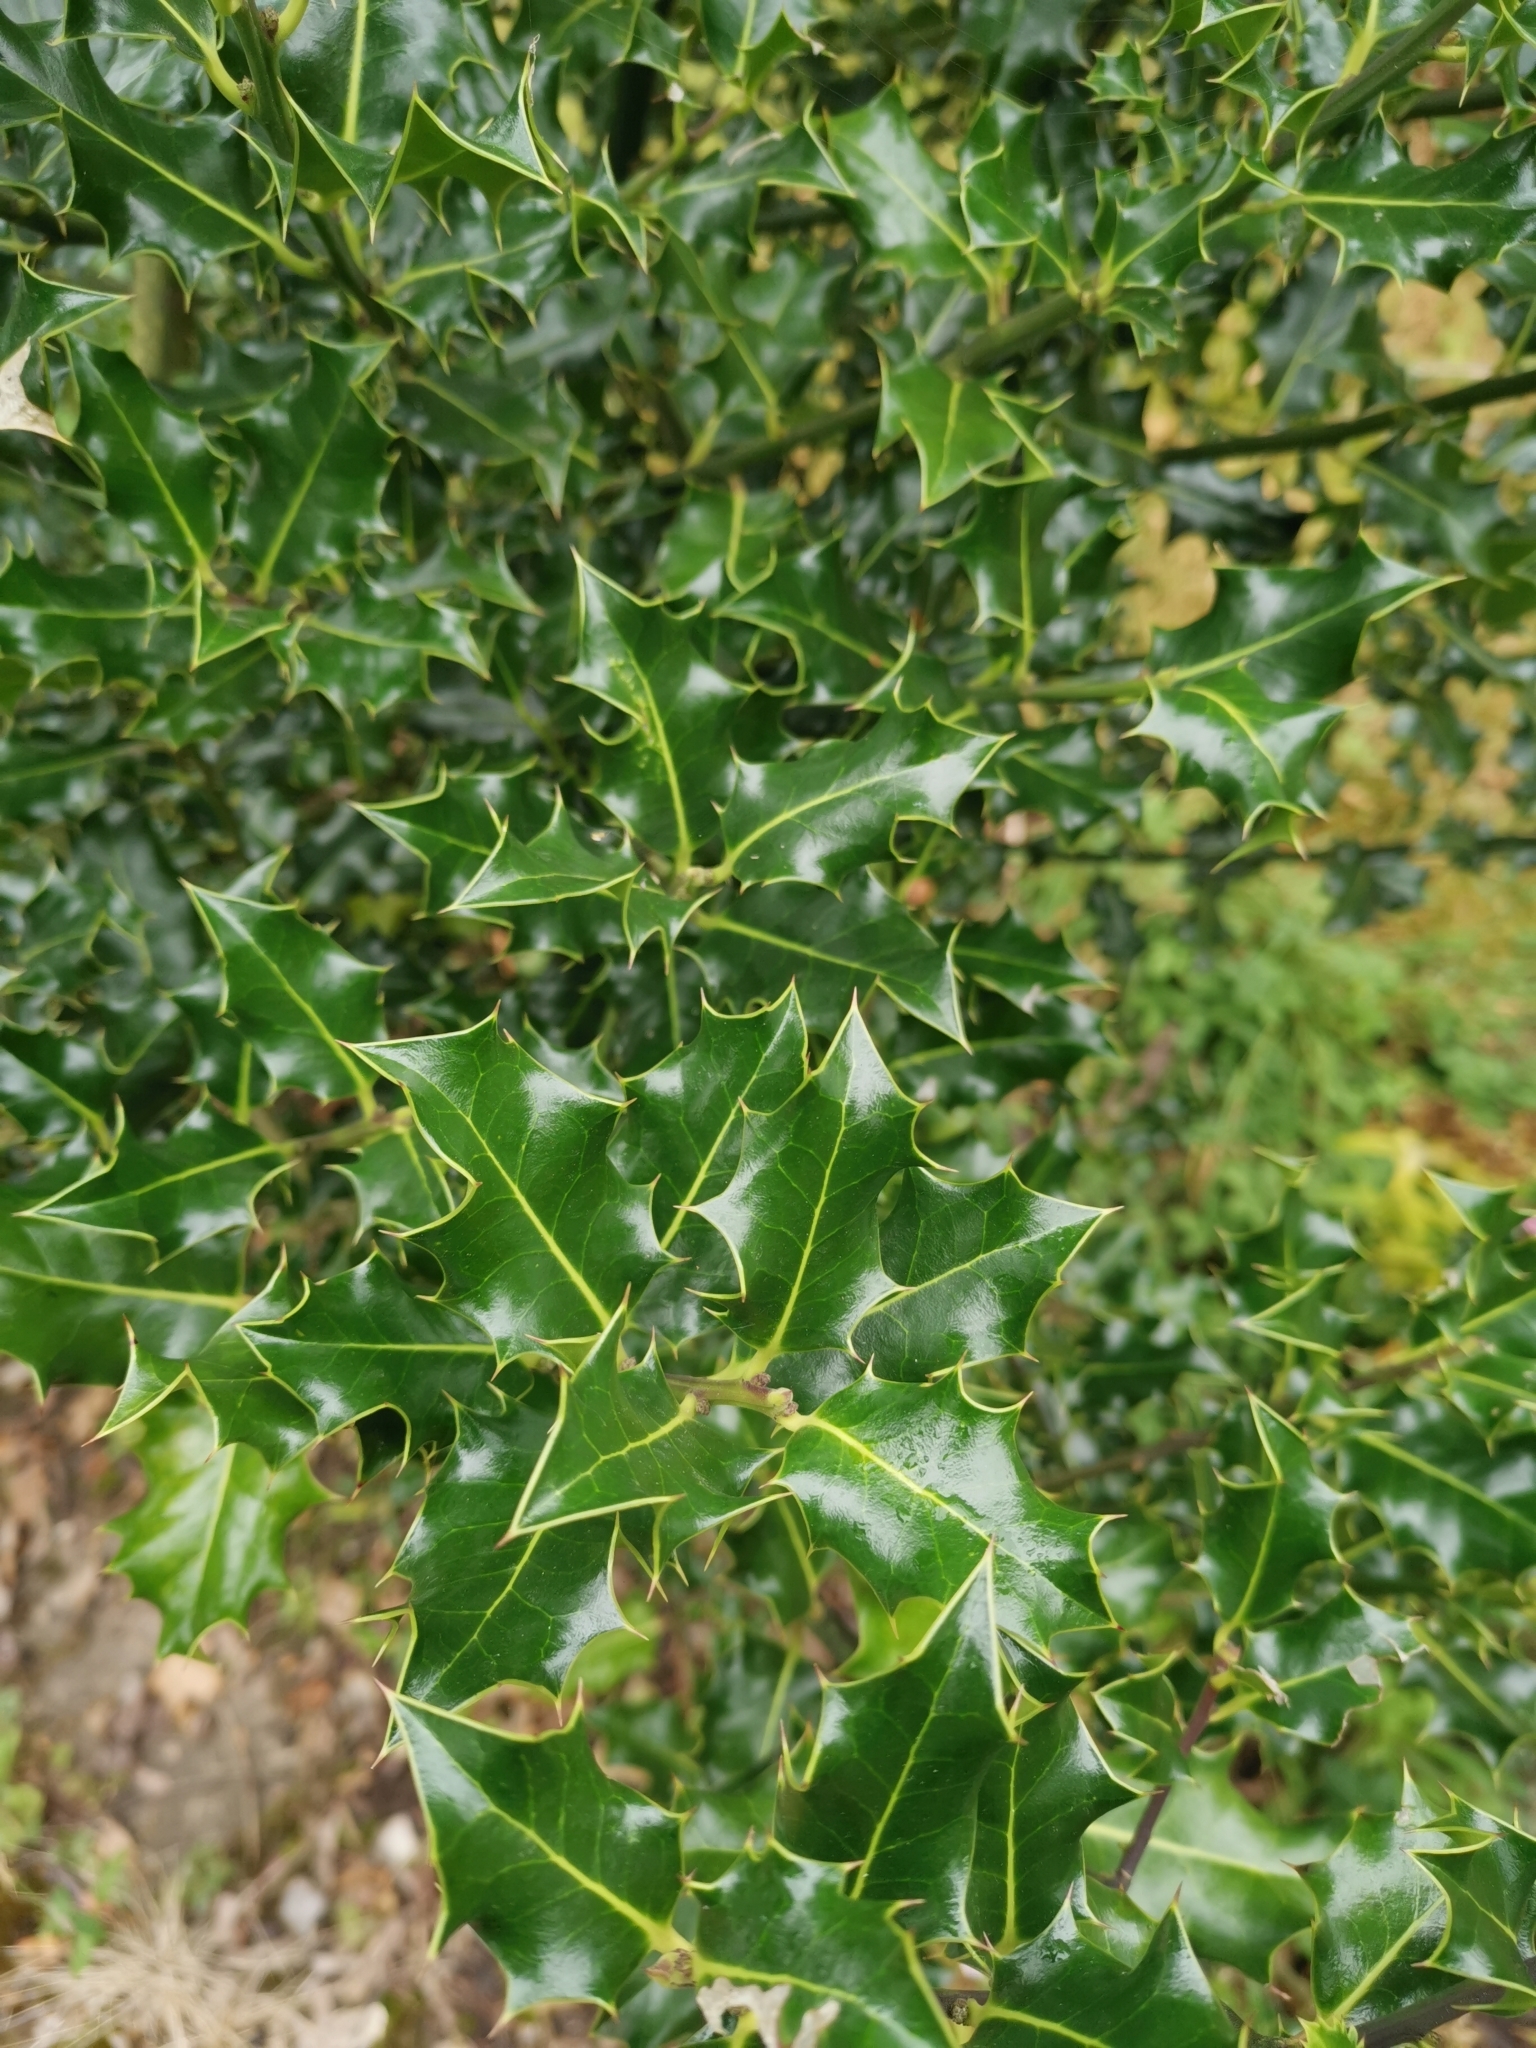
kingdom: Plantae
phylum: Tracheophyta
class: Magnoliopsida
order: Aquifoliales
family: Aquifoliaceae
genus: Ilex
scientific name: Ilex aquifolium
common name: English holly
